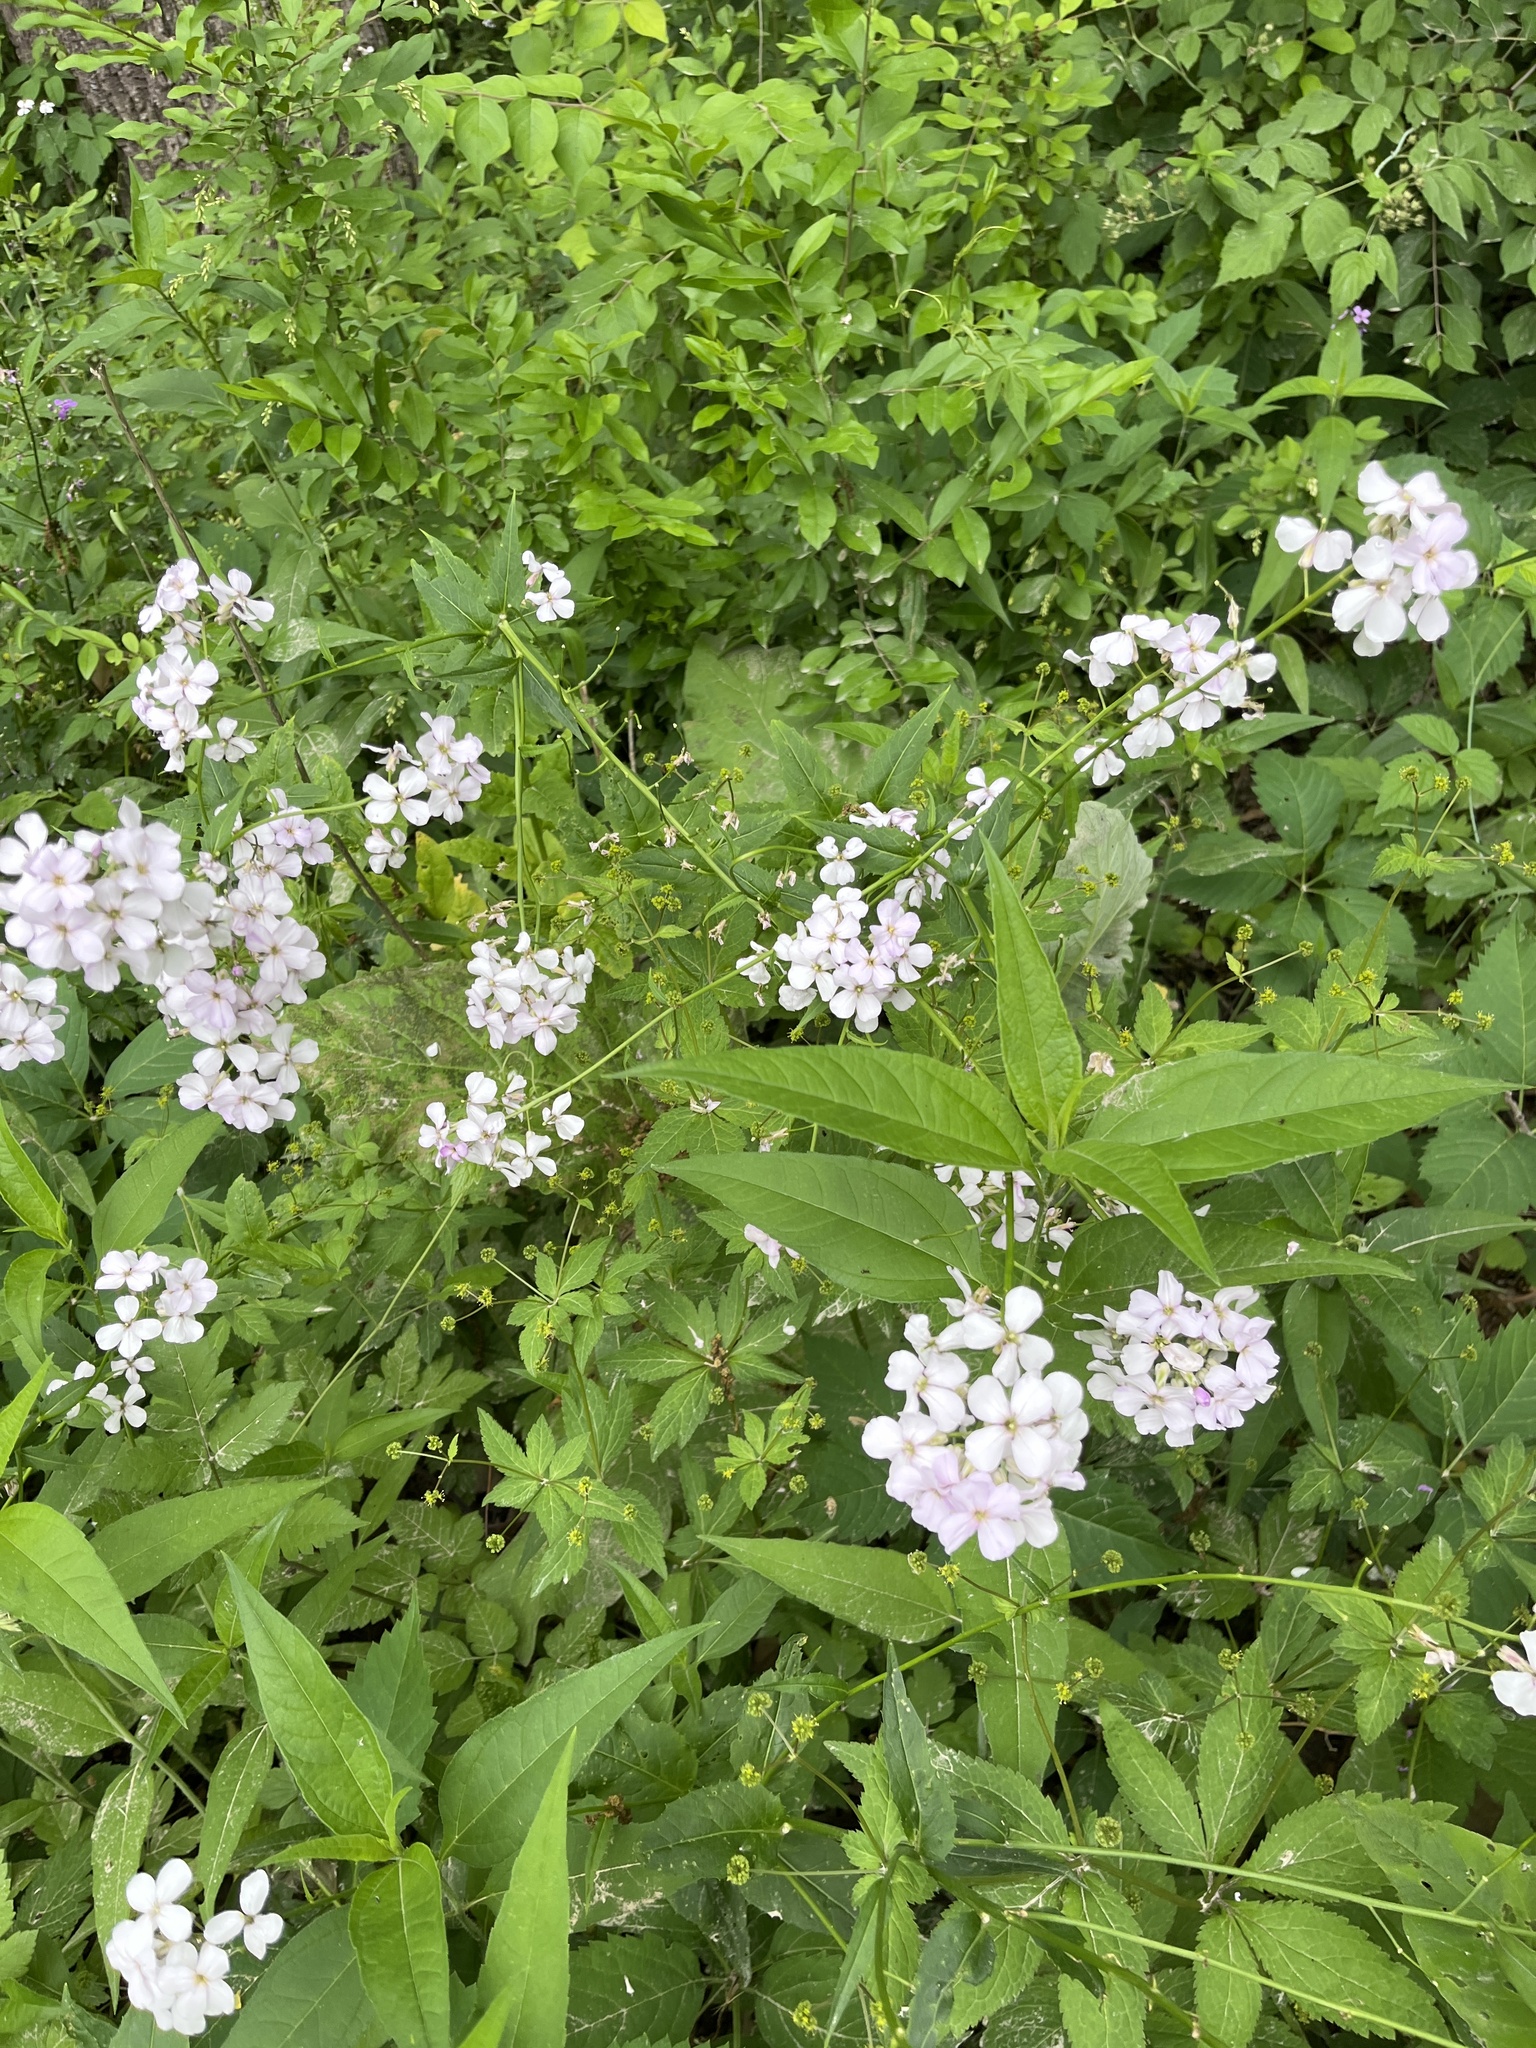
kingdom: Plantae
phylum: Tracheophyta
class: Magnoliopsida
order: Brassicales
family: Brassicaceae
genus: Hesperis
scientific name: Hesperis matronalis
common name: Dame's-violet
